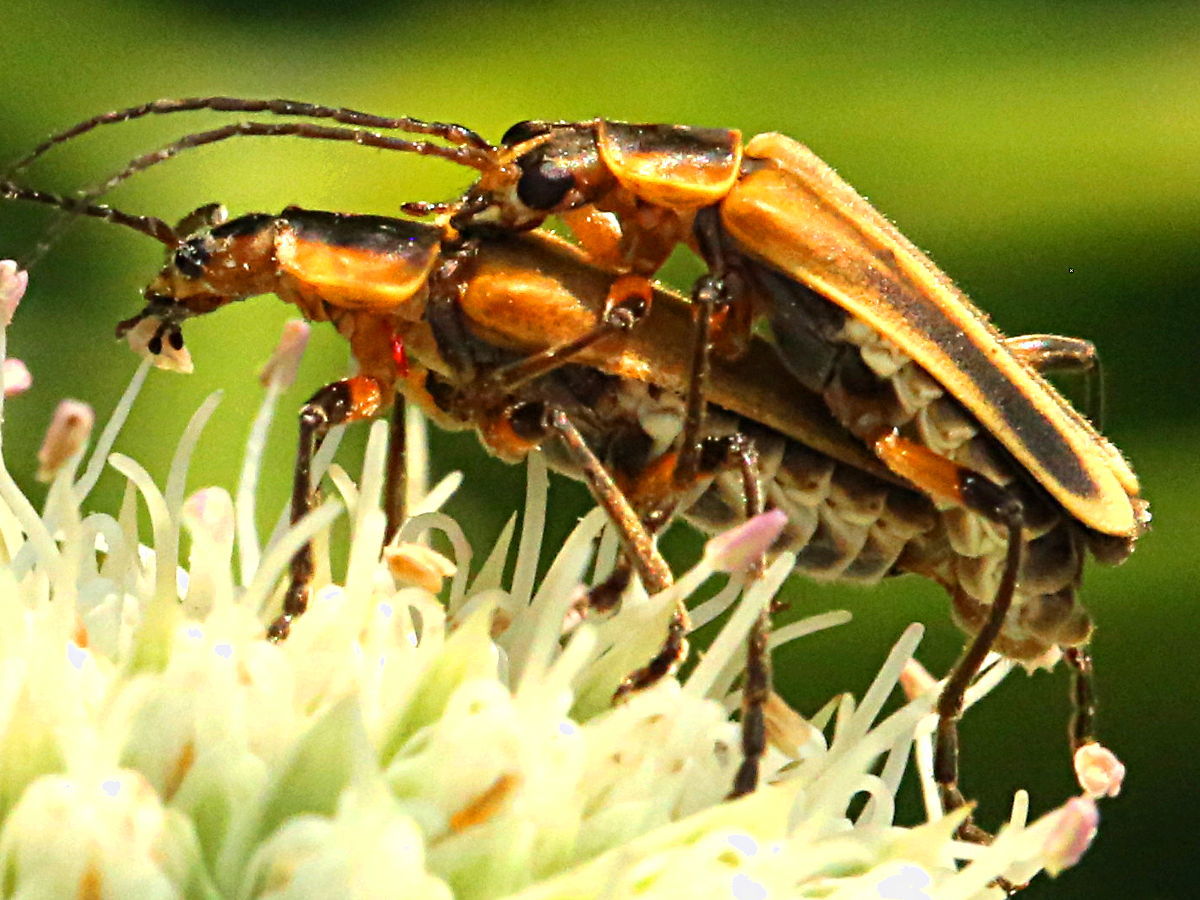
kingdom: Animalia
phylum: Arthropoda
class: Insecta
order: Coleoptera
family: Cantharidae
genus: Chauliognathus
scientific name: Chauliognathus marginatus
